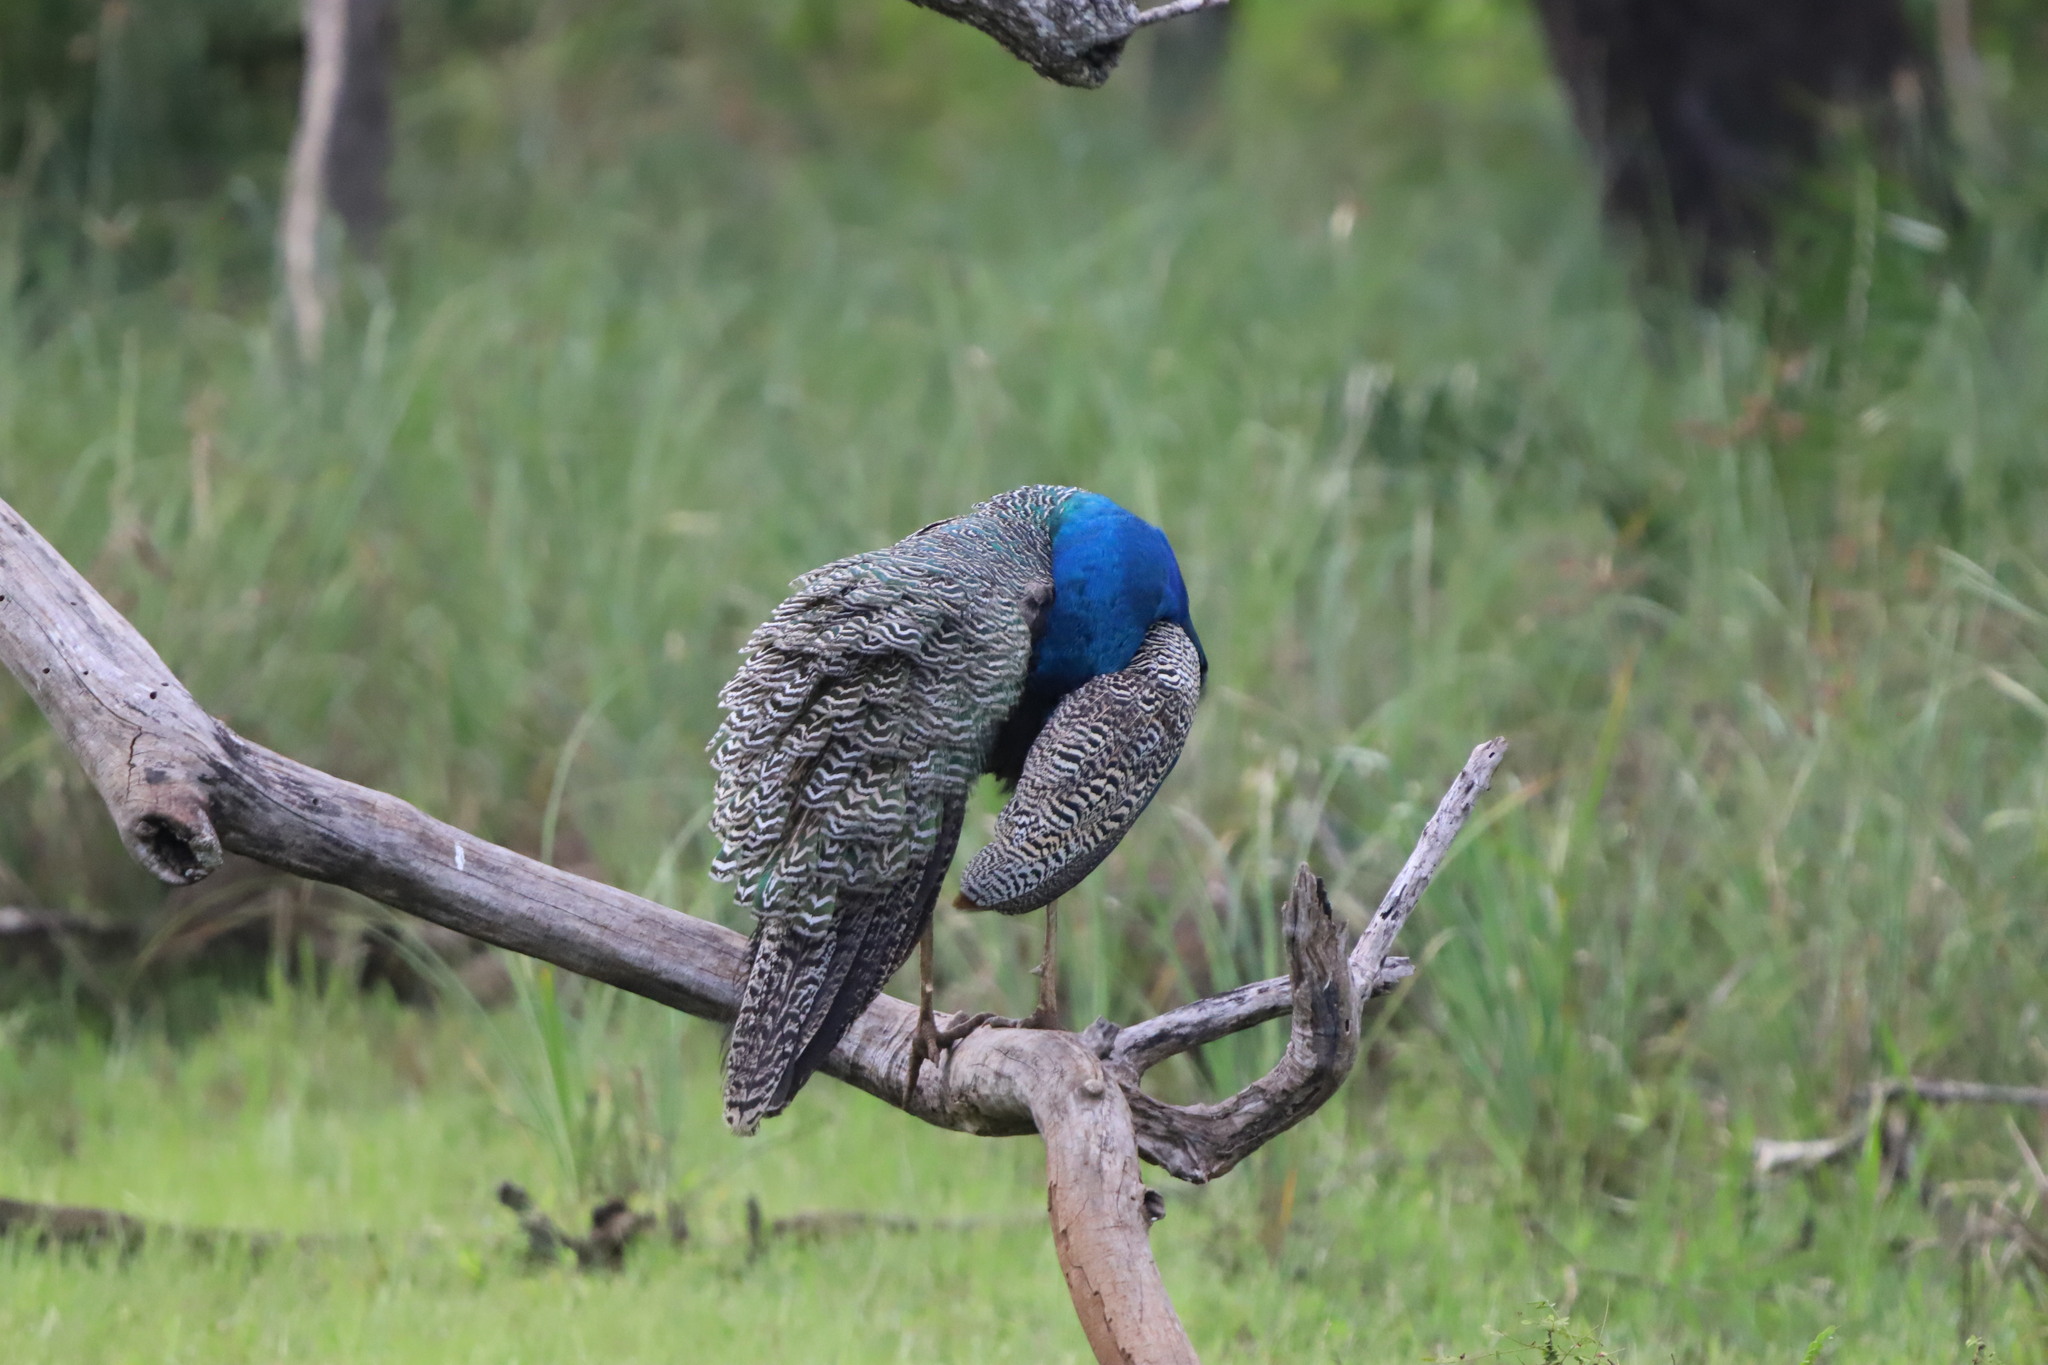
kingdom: Animalia
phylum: Chordata
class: Aves
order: Galliformes
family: Phasianidae
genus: Pavo
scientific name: Pavo cristatus
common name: Indian peafowl
